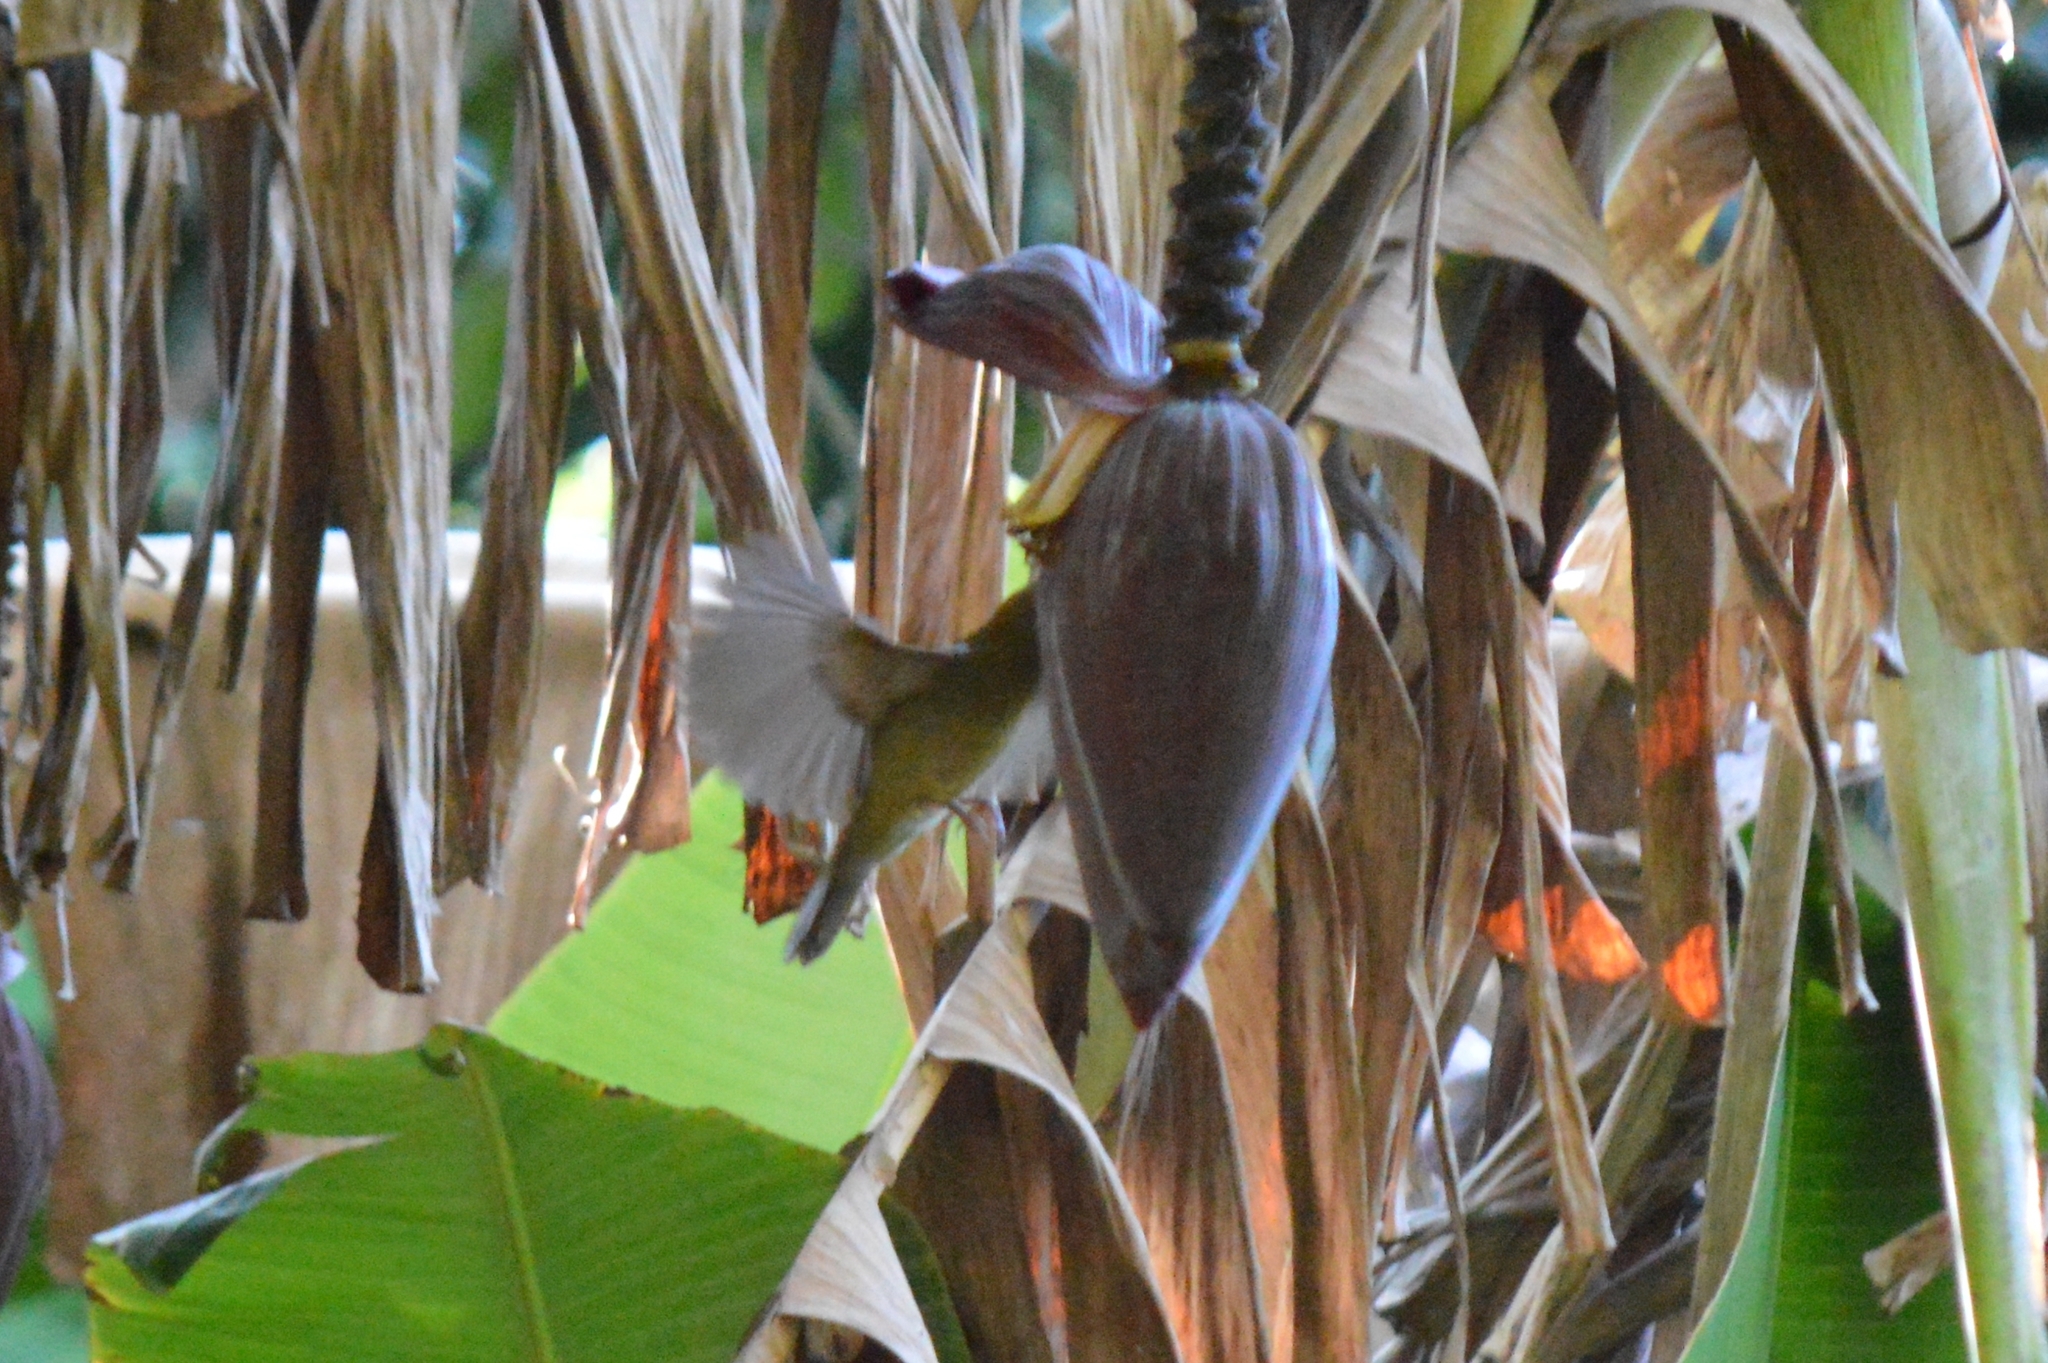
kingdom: Animalia
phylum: Chordata
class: Aves
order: Passeriformes
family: Pipridae
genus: Antilophia
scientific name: Antilophia galeata
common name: Helmeted manakin
